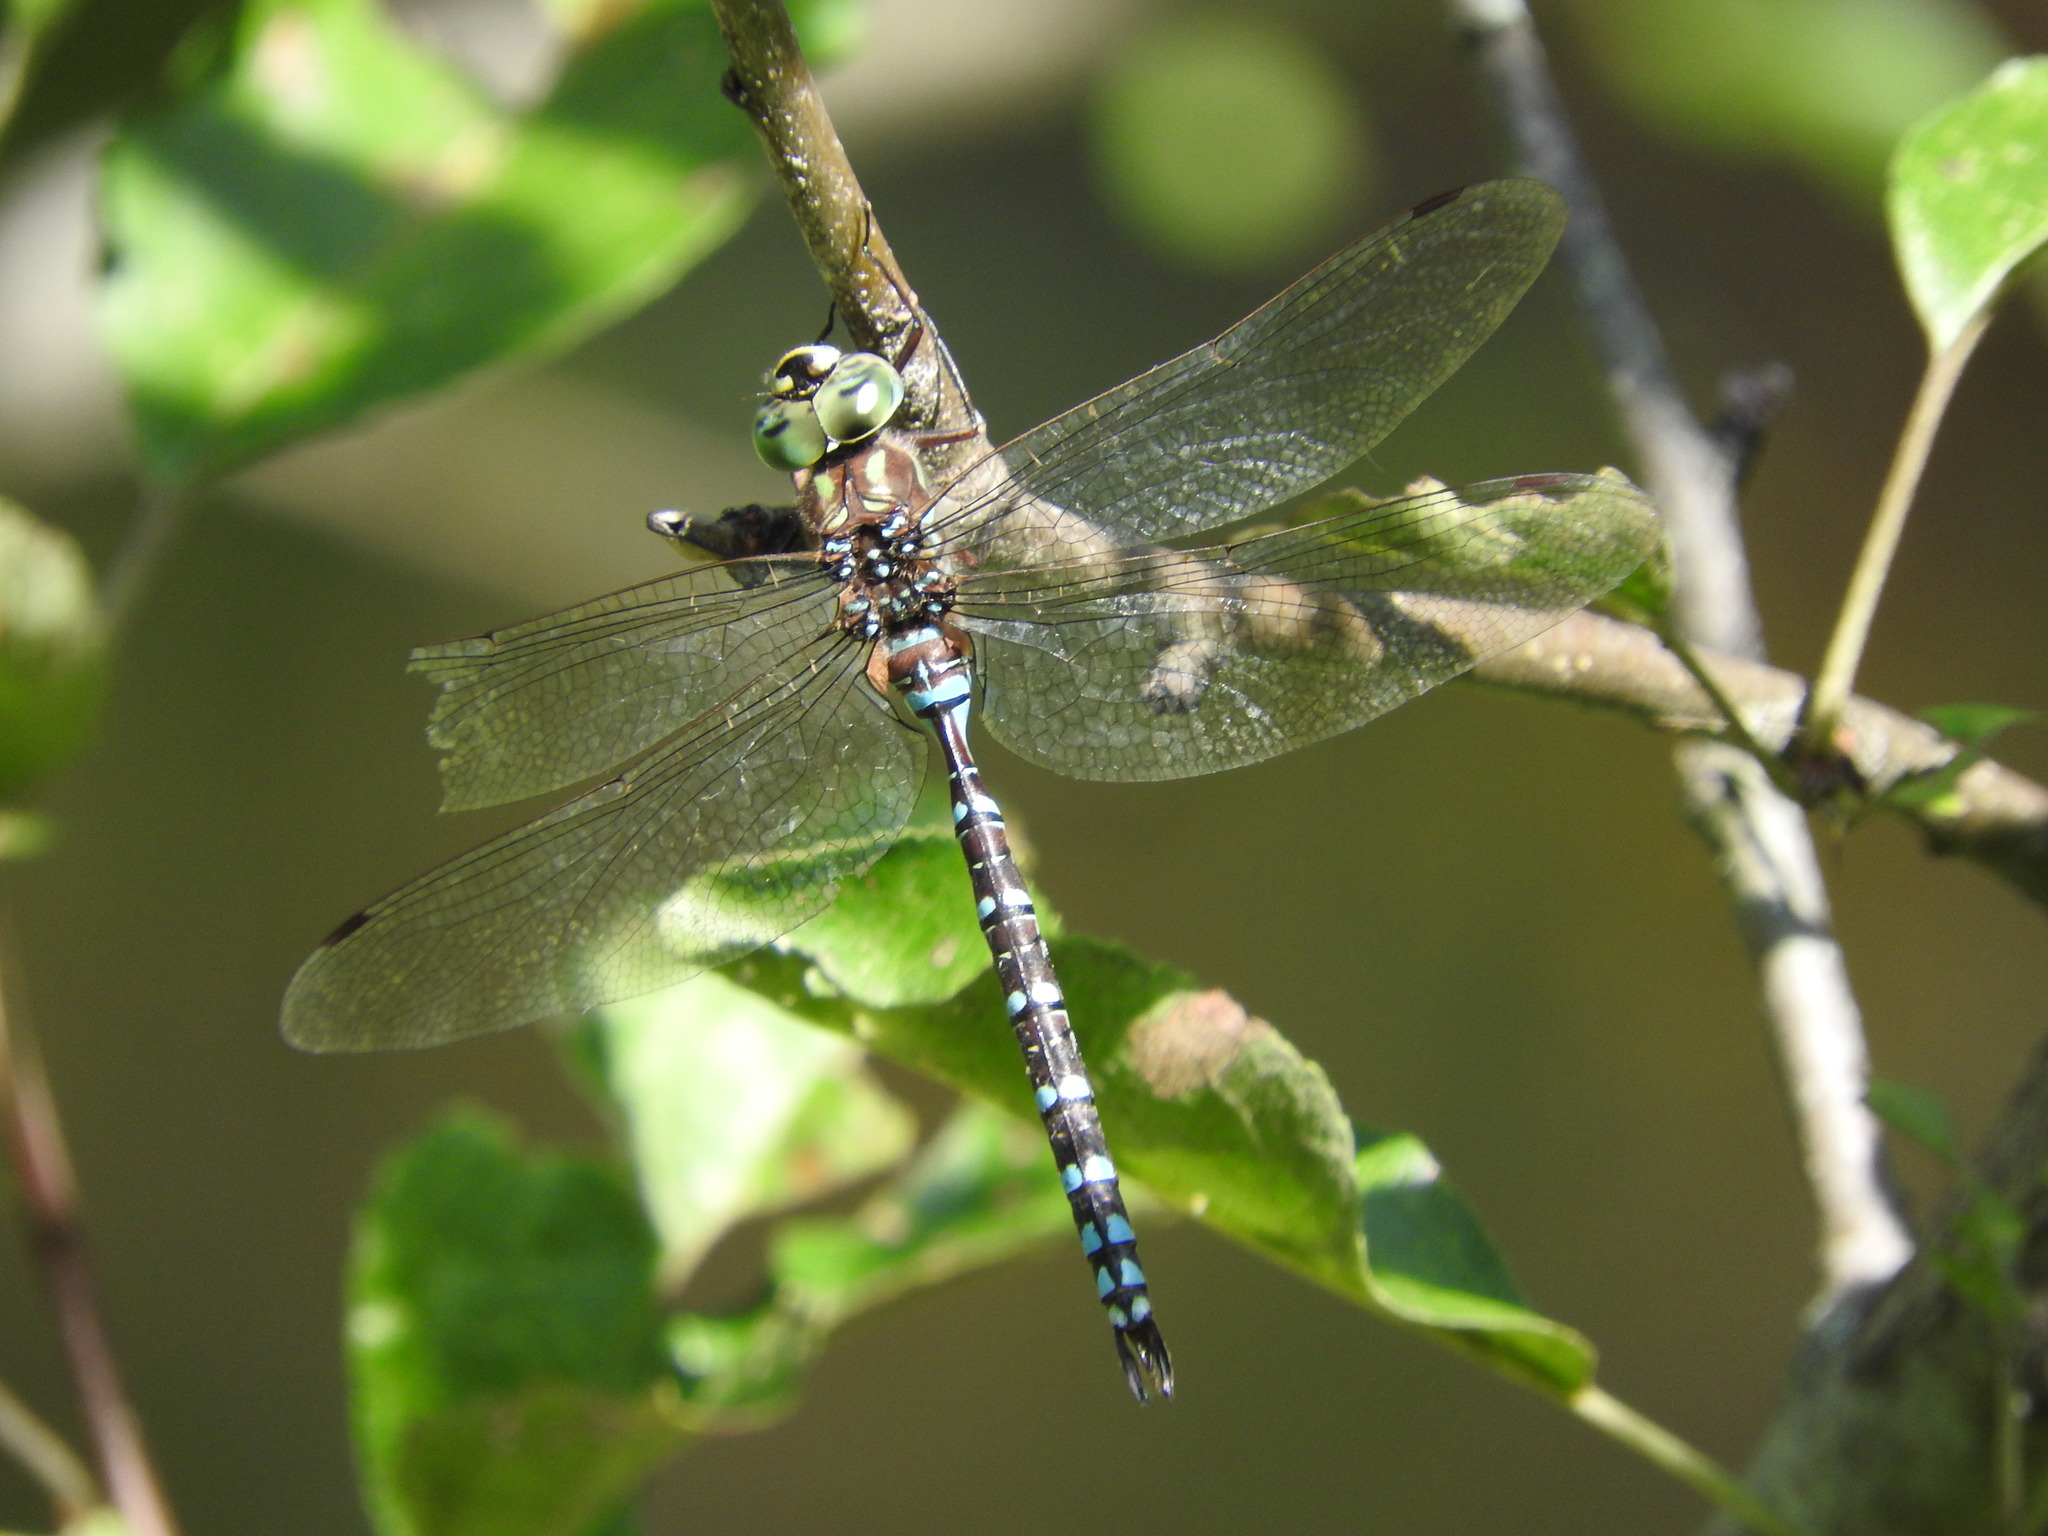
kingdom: Animalia
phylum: Arthropoda
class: Insecta
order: Odonata
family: Aeshnidae
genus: Aeshna
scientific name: Aeshna canadensis
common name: Canada darner
